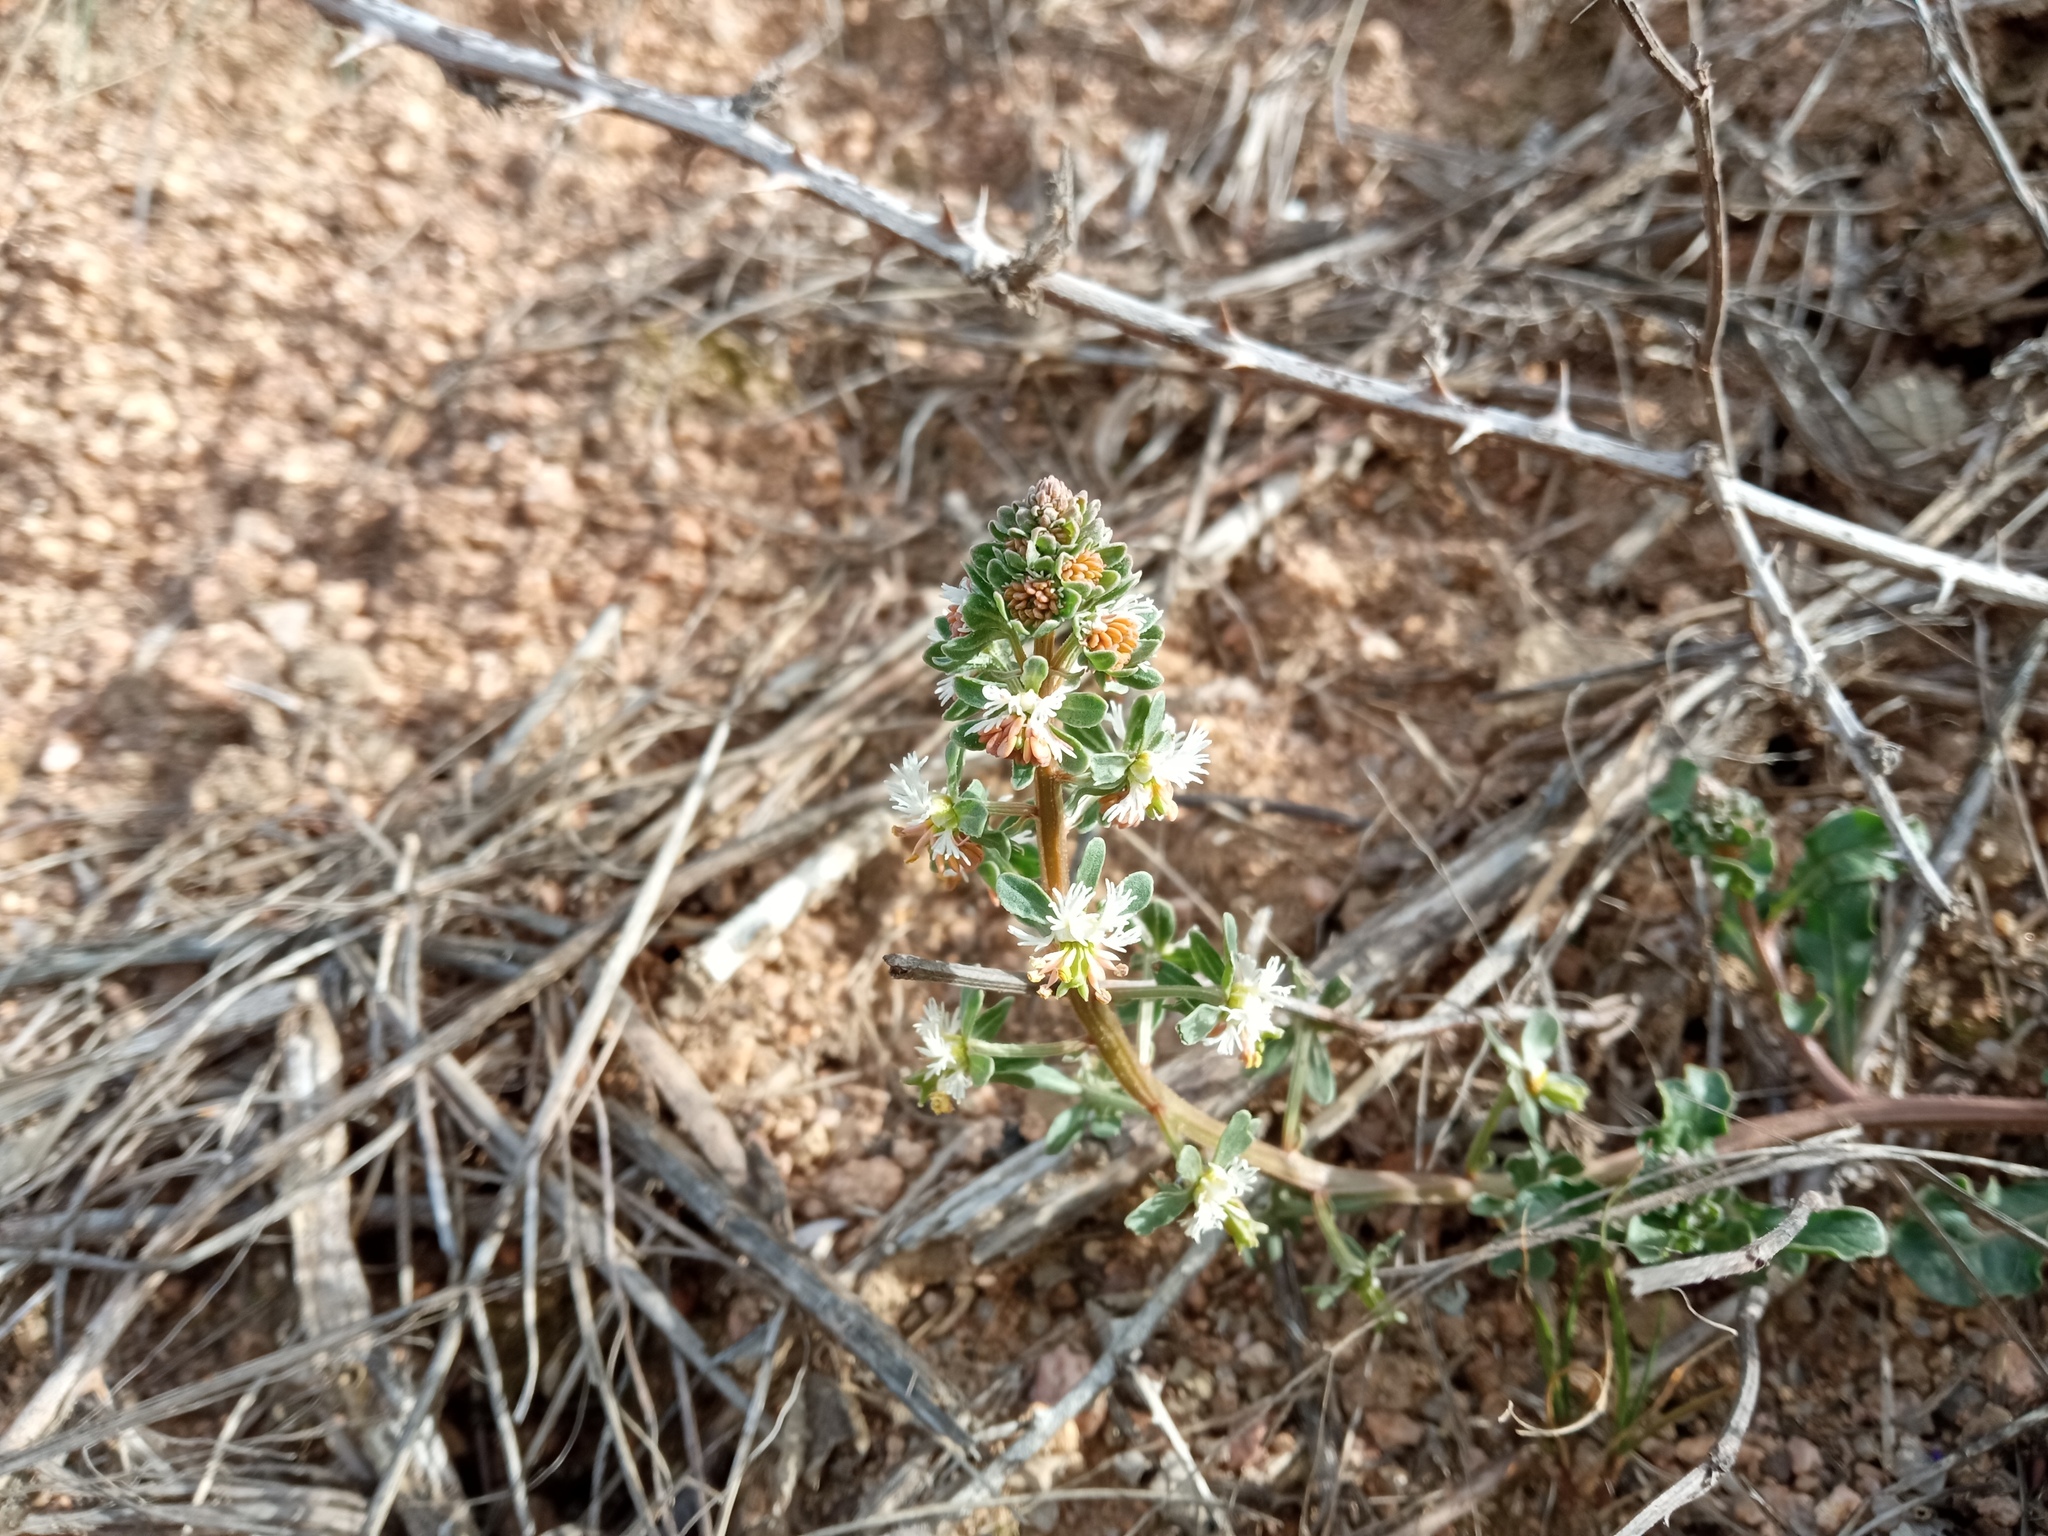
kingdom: Plantae
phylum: Tracheophyta
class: Magnoliopsida
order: Brassicales
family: Resedaceae
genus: Reseda
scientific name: Reseda phyteuma
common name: Corn mignonette
